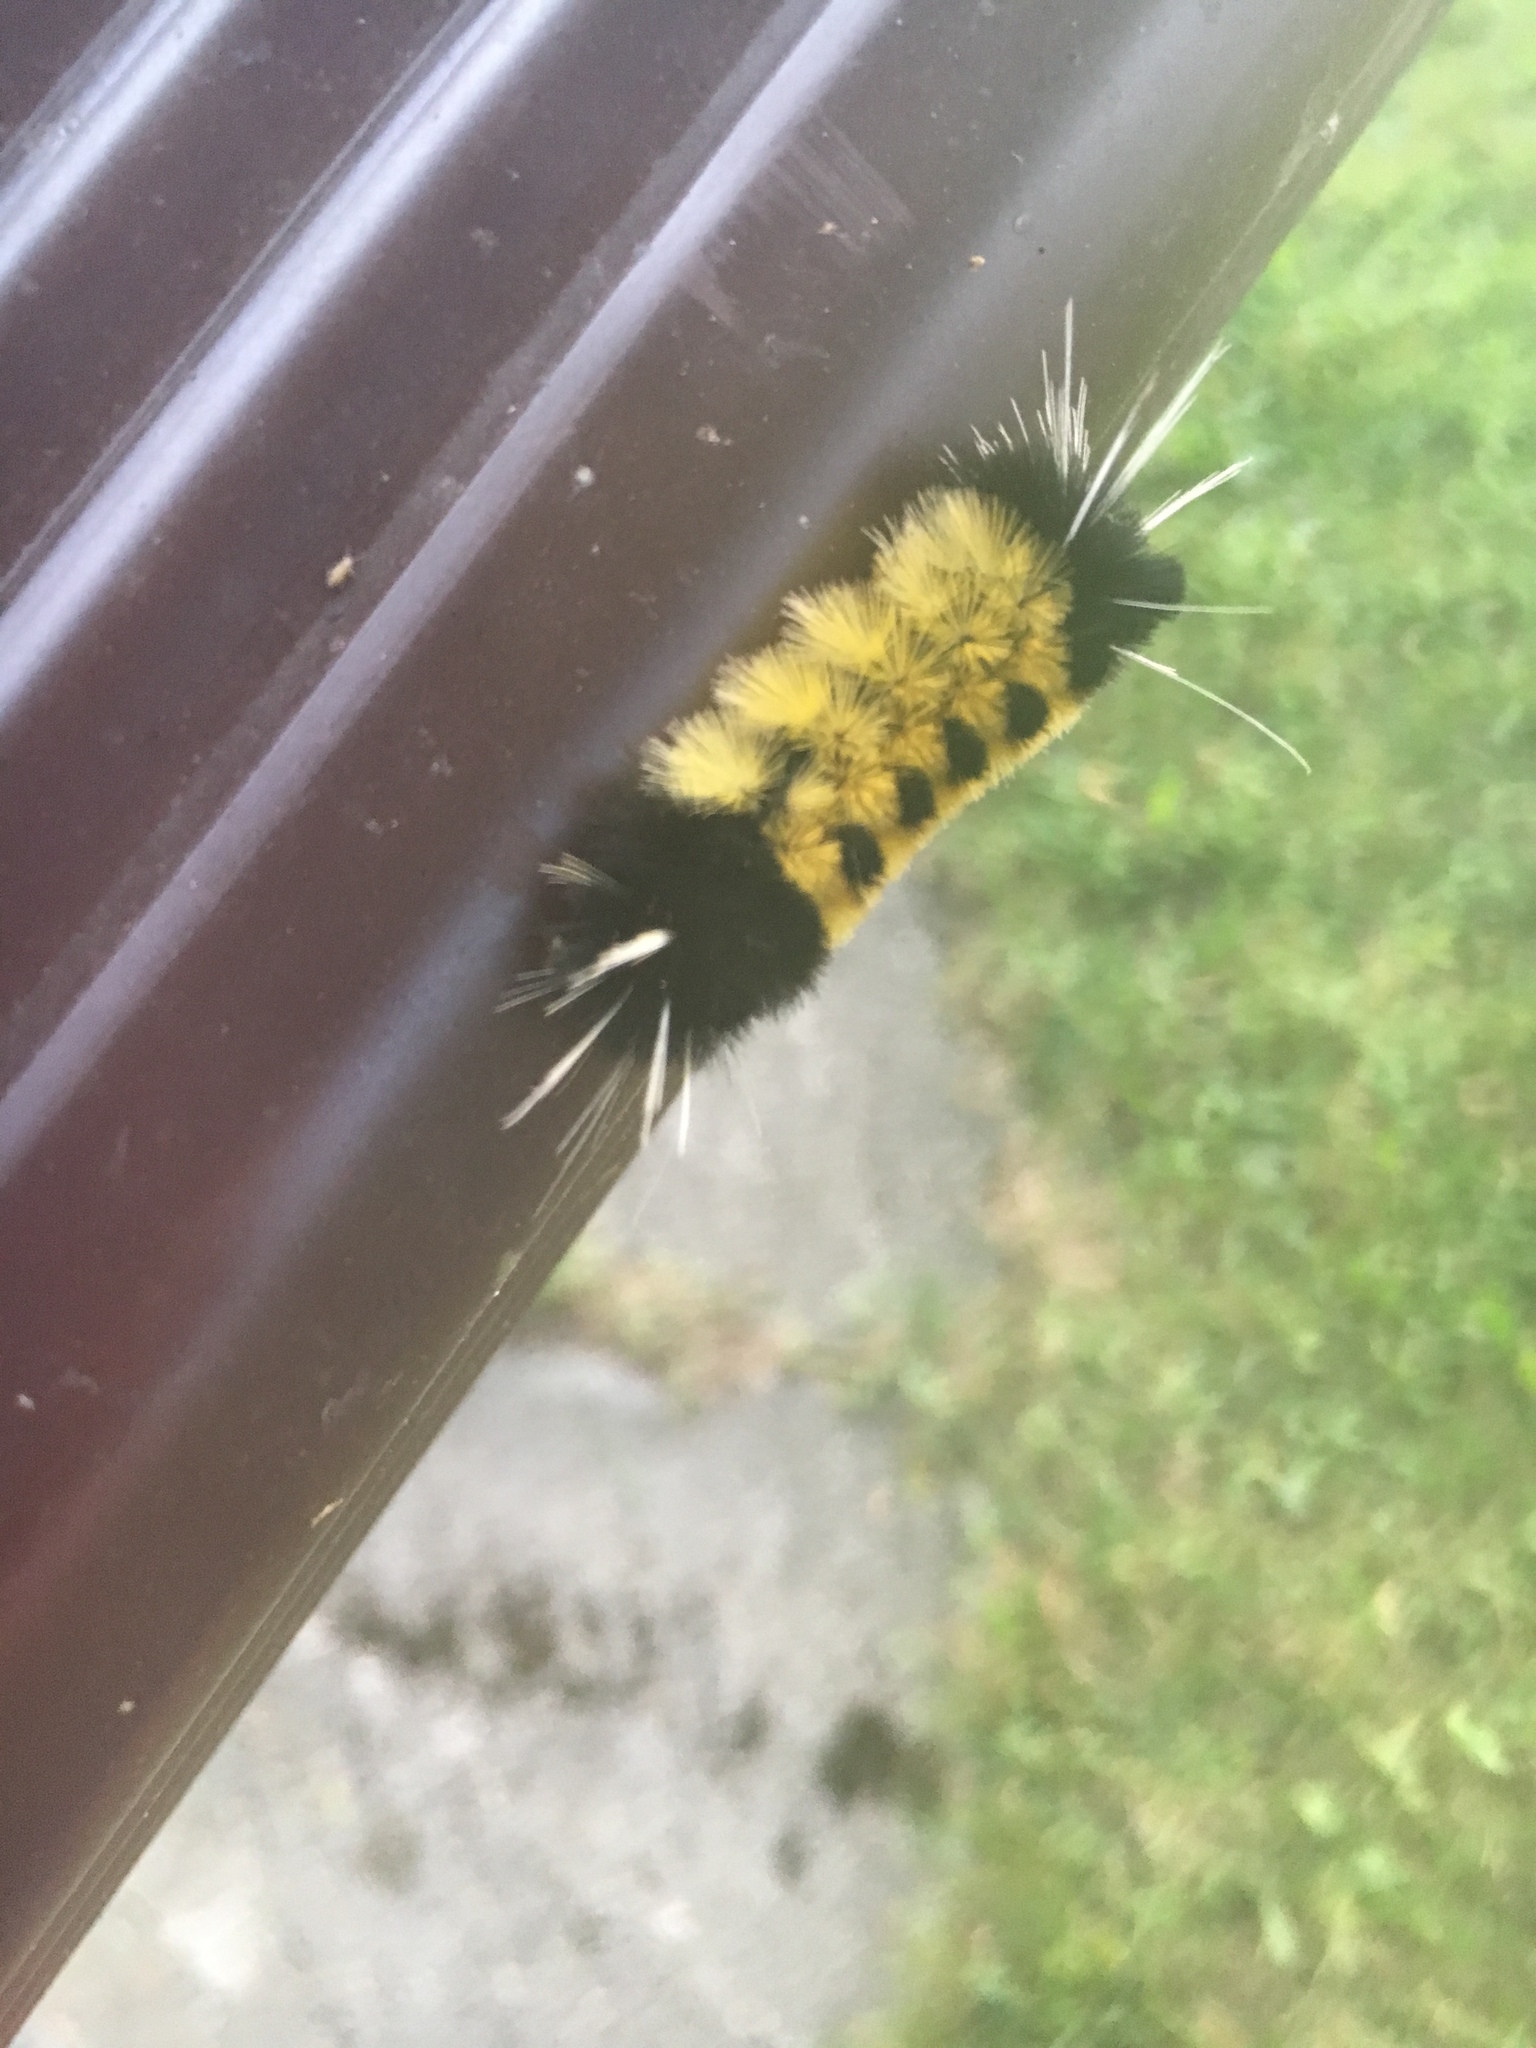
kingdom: Animalia
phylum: Arthropoda
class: Insecta
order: Lepidoptera
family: Erebidae
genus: Lophocampa
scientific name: Lophocampa maculata
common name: Spotted tussock moth
